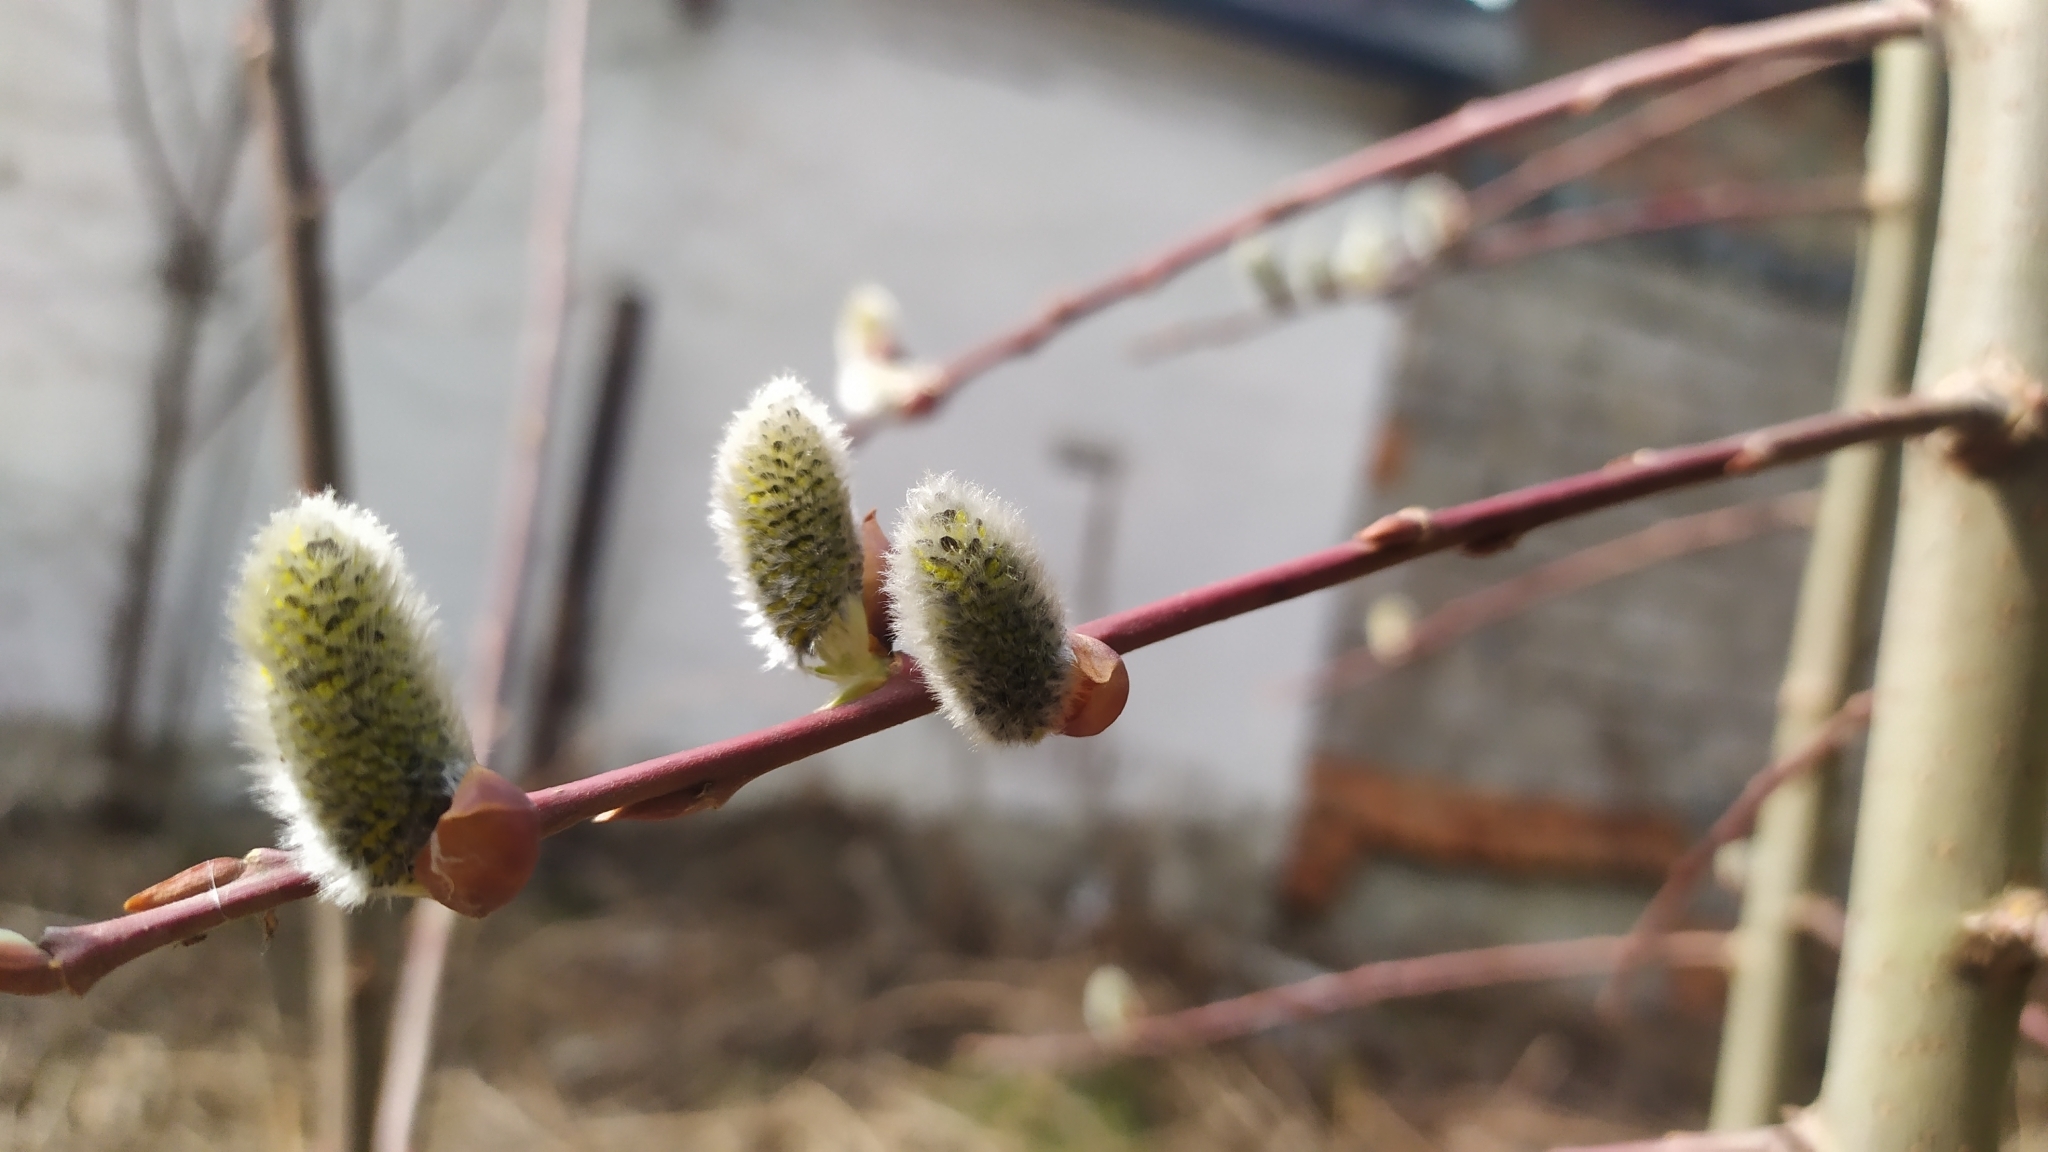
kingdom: Plantae
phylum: Tracheophyta
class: Magnoliopsida
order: Malpighiales
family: Salicaceae
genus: Salix
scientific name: Salix acutifolia
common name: Siberian violet-willow
